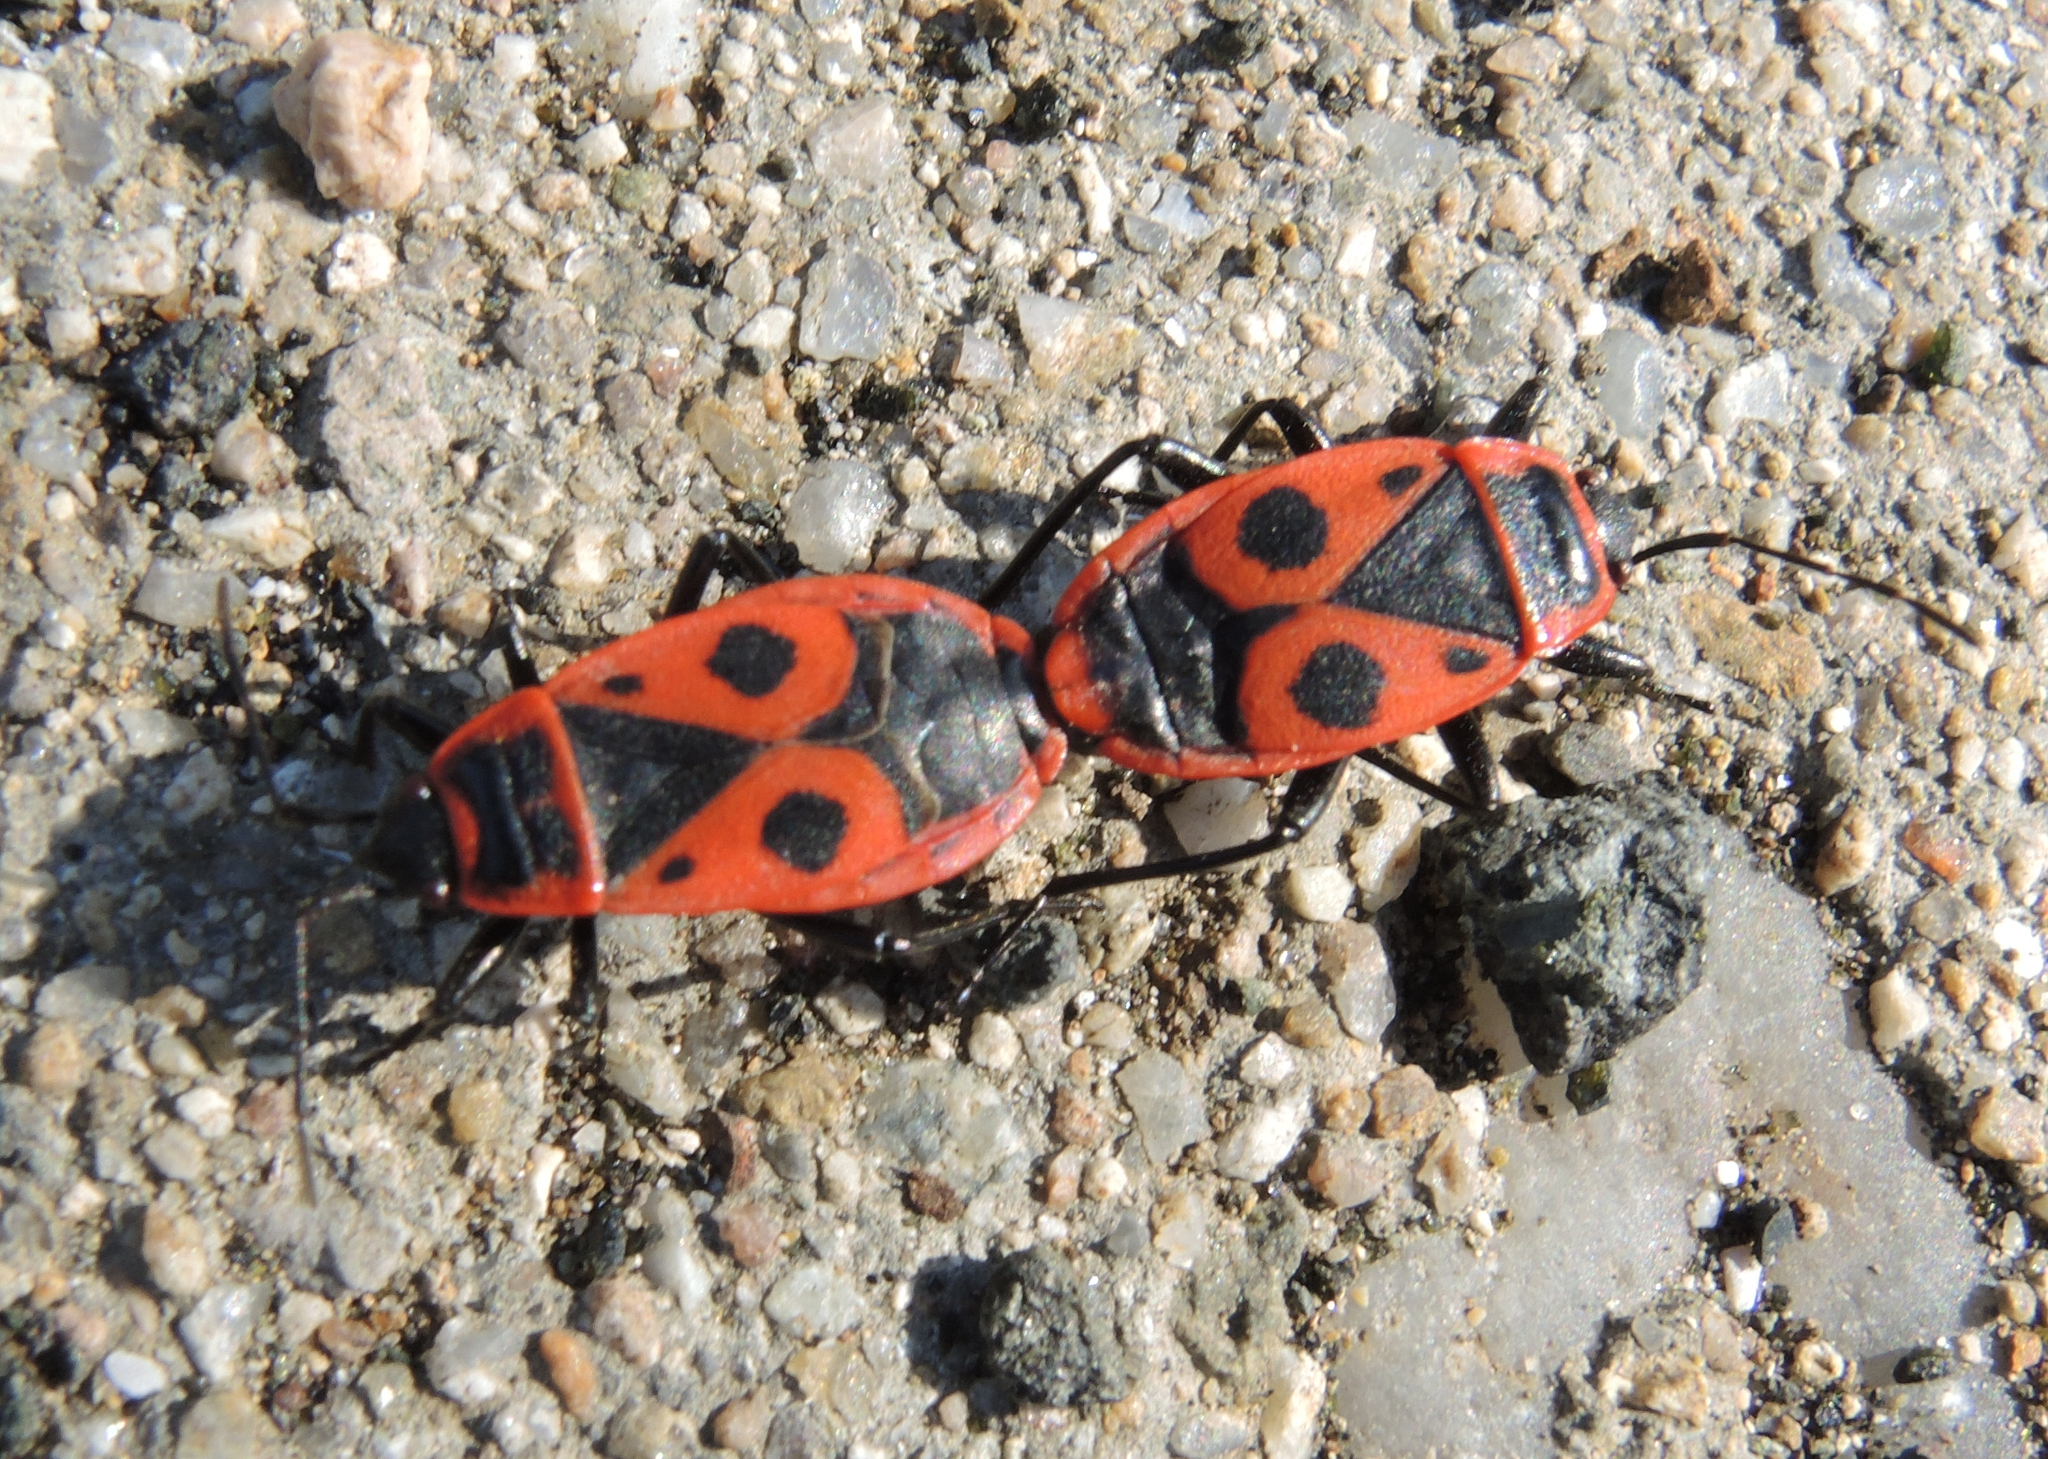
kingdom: Animalia
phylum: Arthropoda
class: Insecta
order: Hemiptera
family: Pyrrhocoridae
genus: Pyrrhocoris
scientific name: Pyrrhocoris apterus
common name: Firebug
